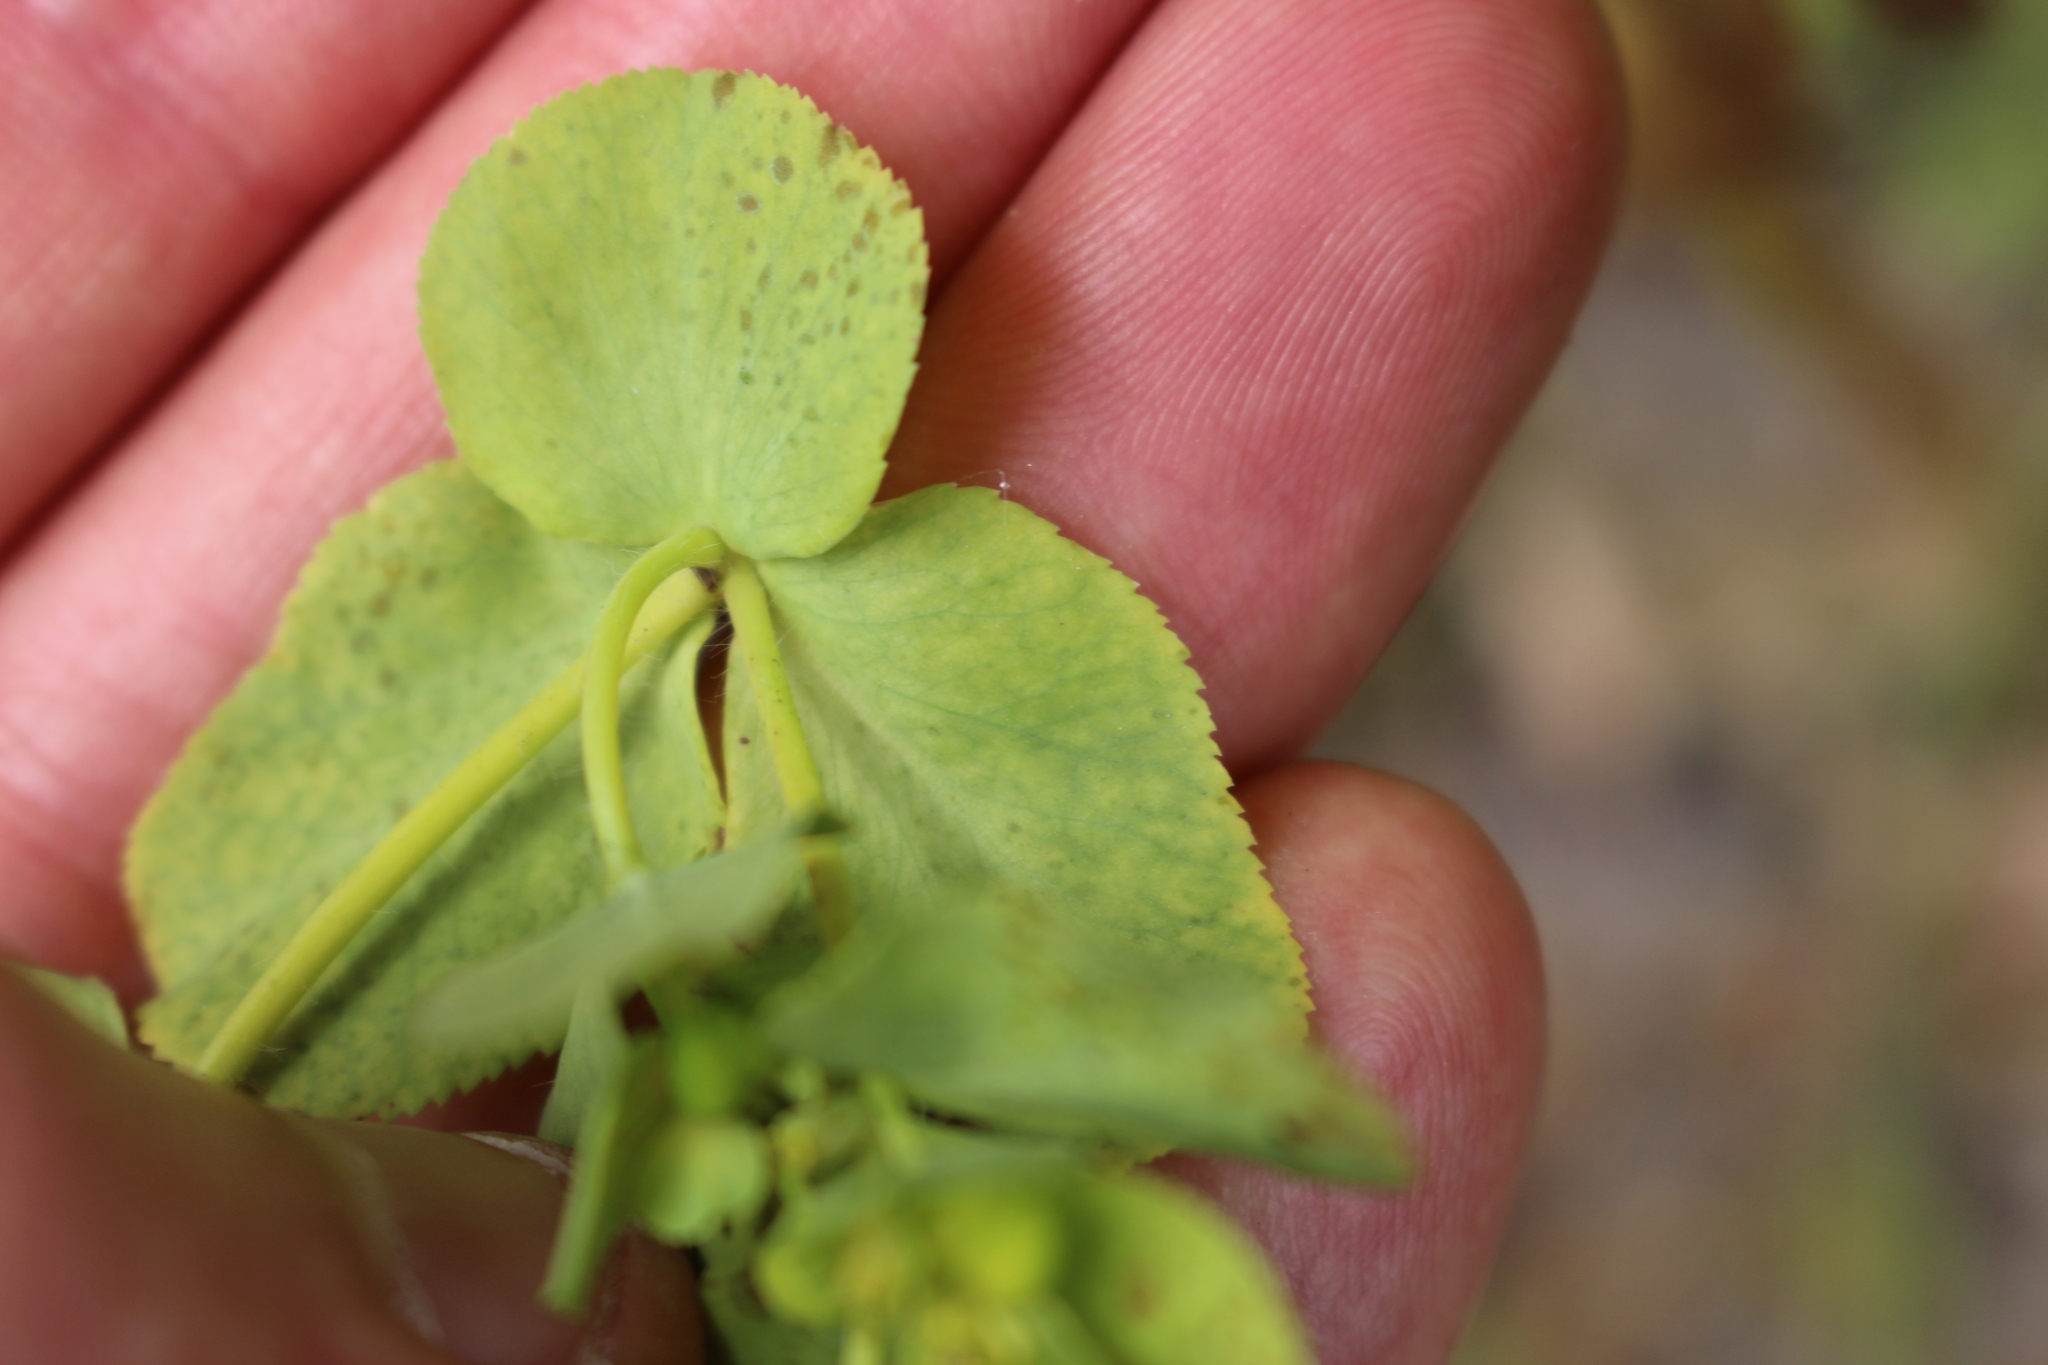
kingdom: Plantae
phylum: Tracheophyta
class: Magnoliopsida
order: Malpighiales
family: Euphorbiaceae
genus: Euphorbia
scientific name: Euphorbia helioscopia
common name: Sun spurge
